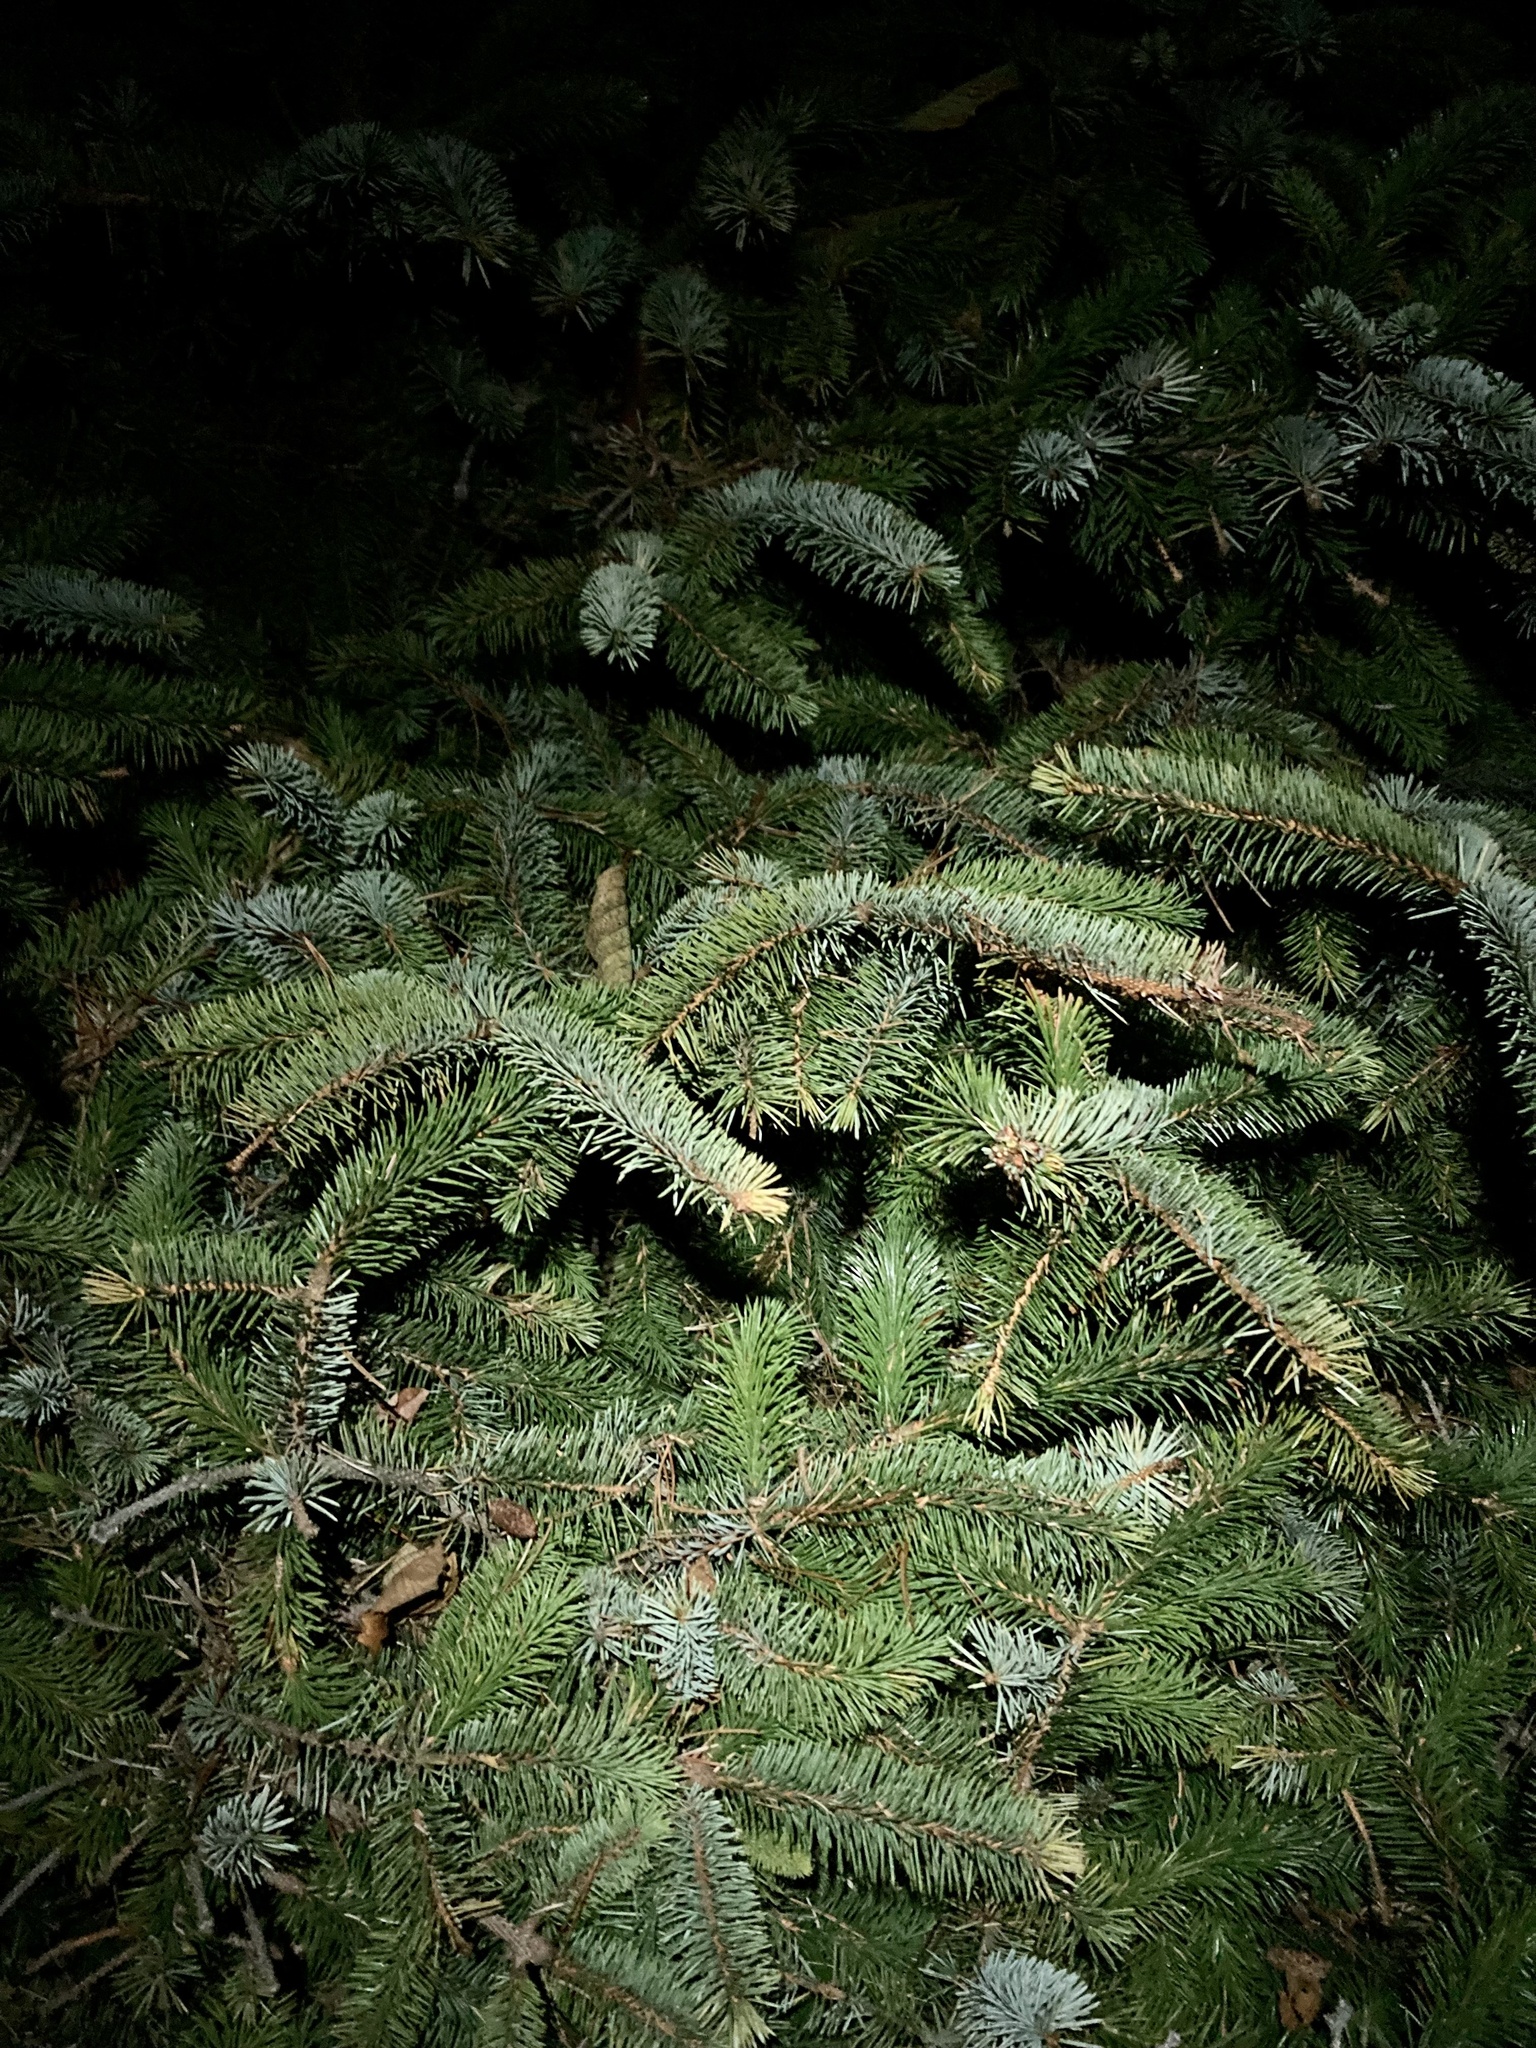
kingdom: Plantae
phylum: Tracheophyta
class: Pinopsida
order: Pinales
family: Pinaceae
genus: Picea
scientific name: Picea sitchensis
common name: Sitka spruce
